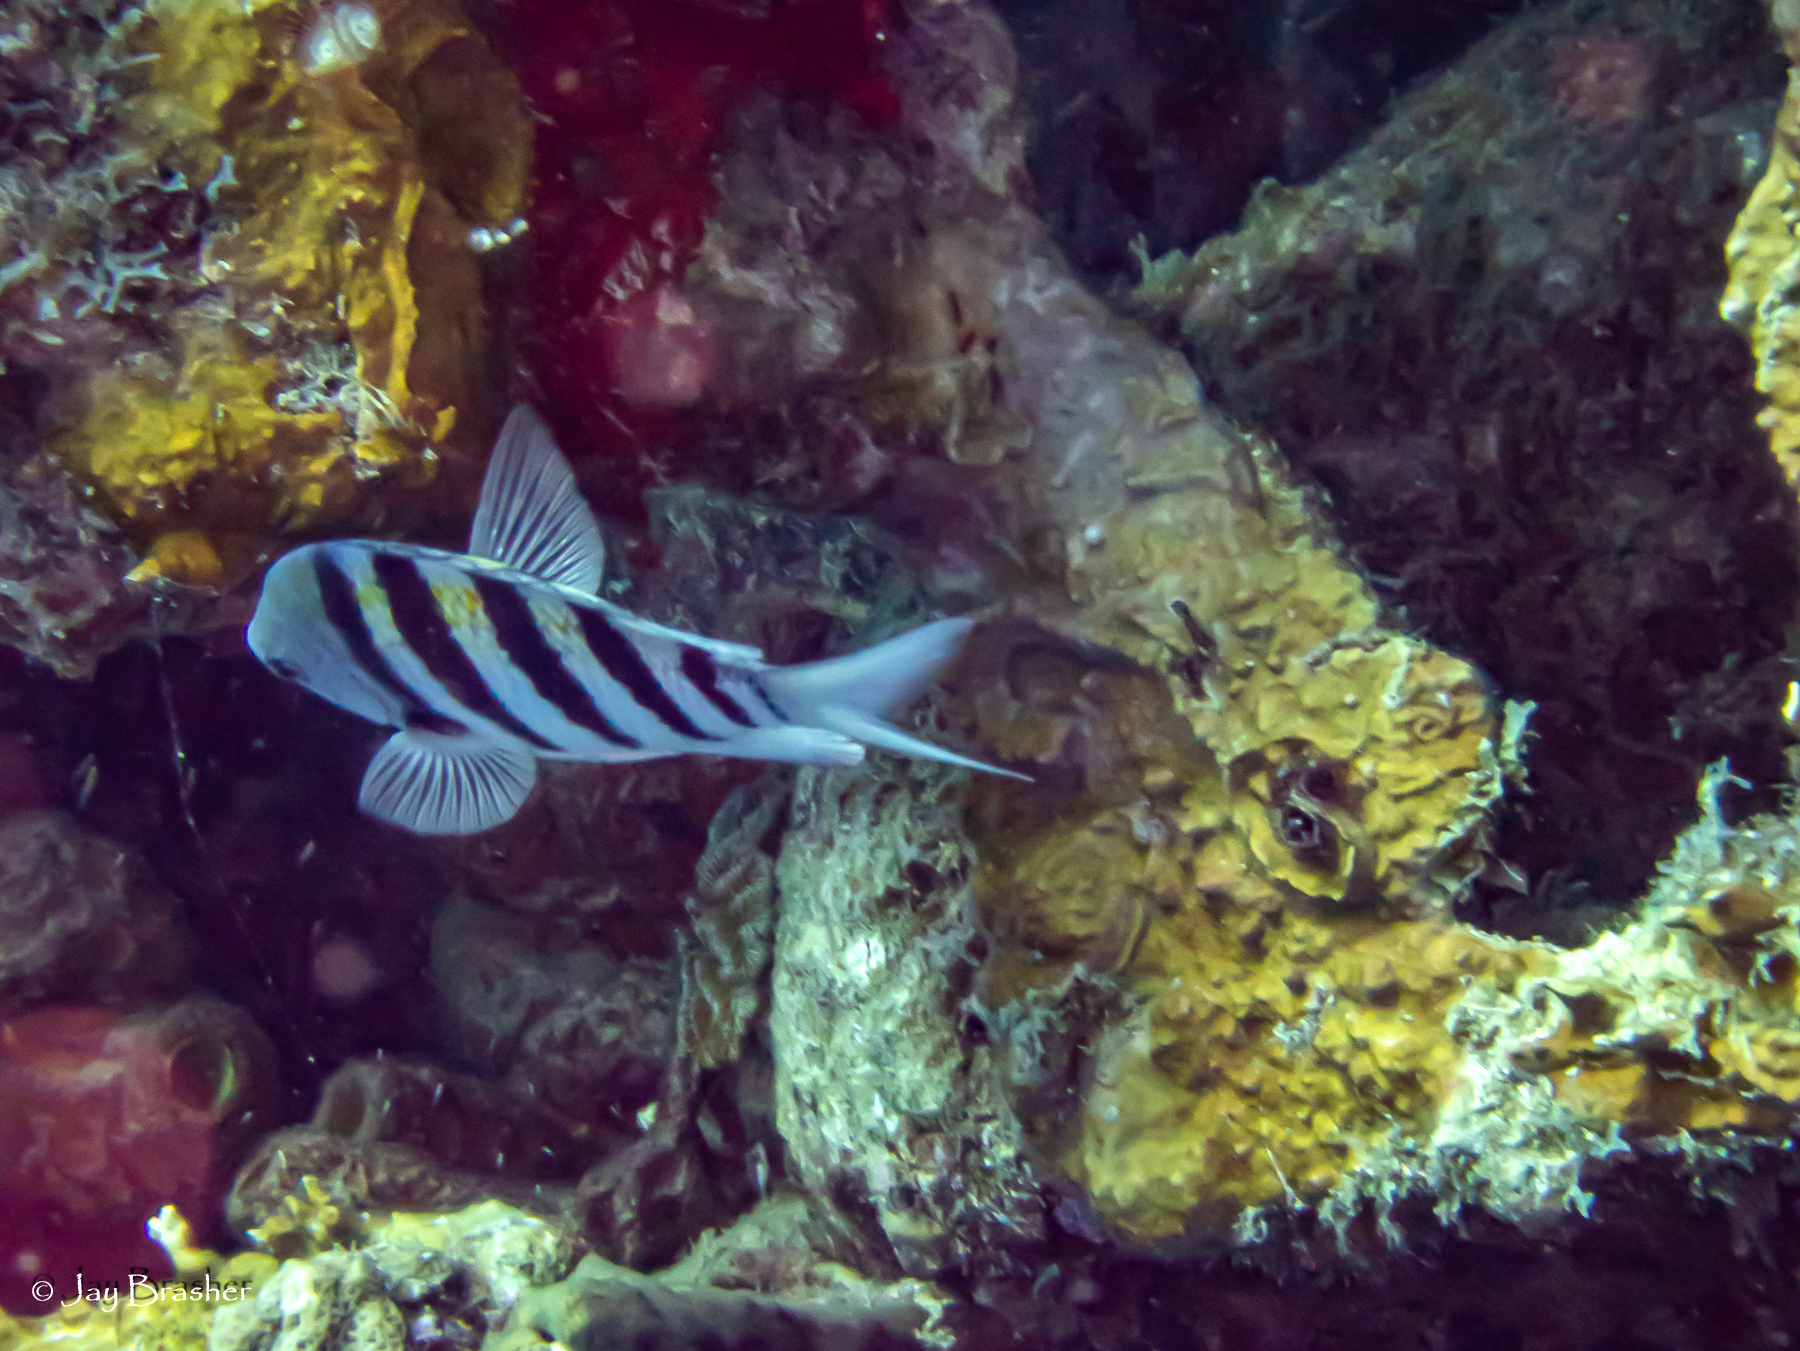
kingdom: Animalia
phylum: Chordata
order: Perciformes
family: Pomacentridae
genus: Abudefduf
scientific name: Abudefduf saxatilis
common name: Sergeant major
